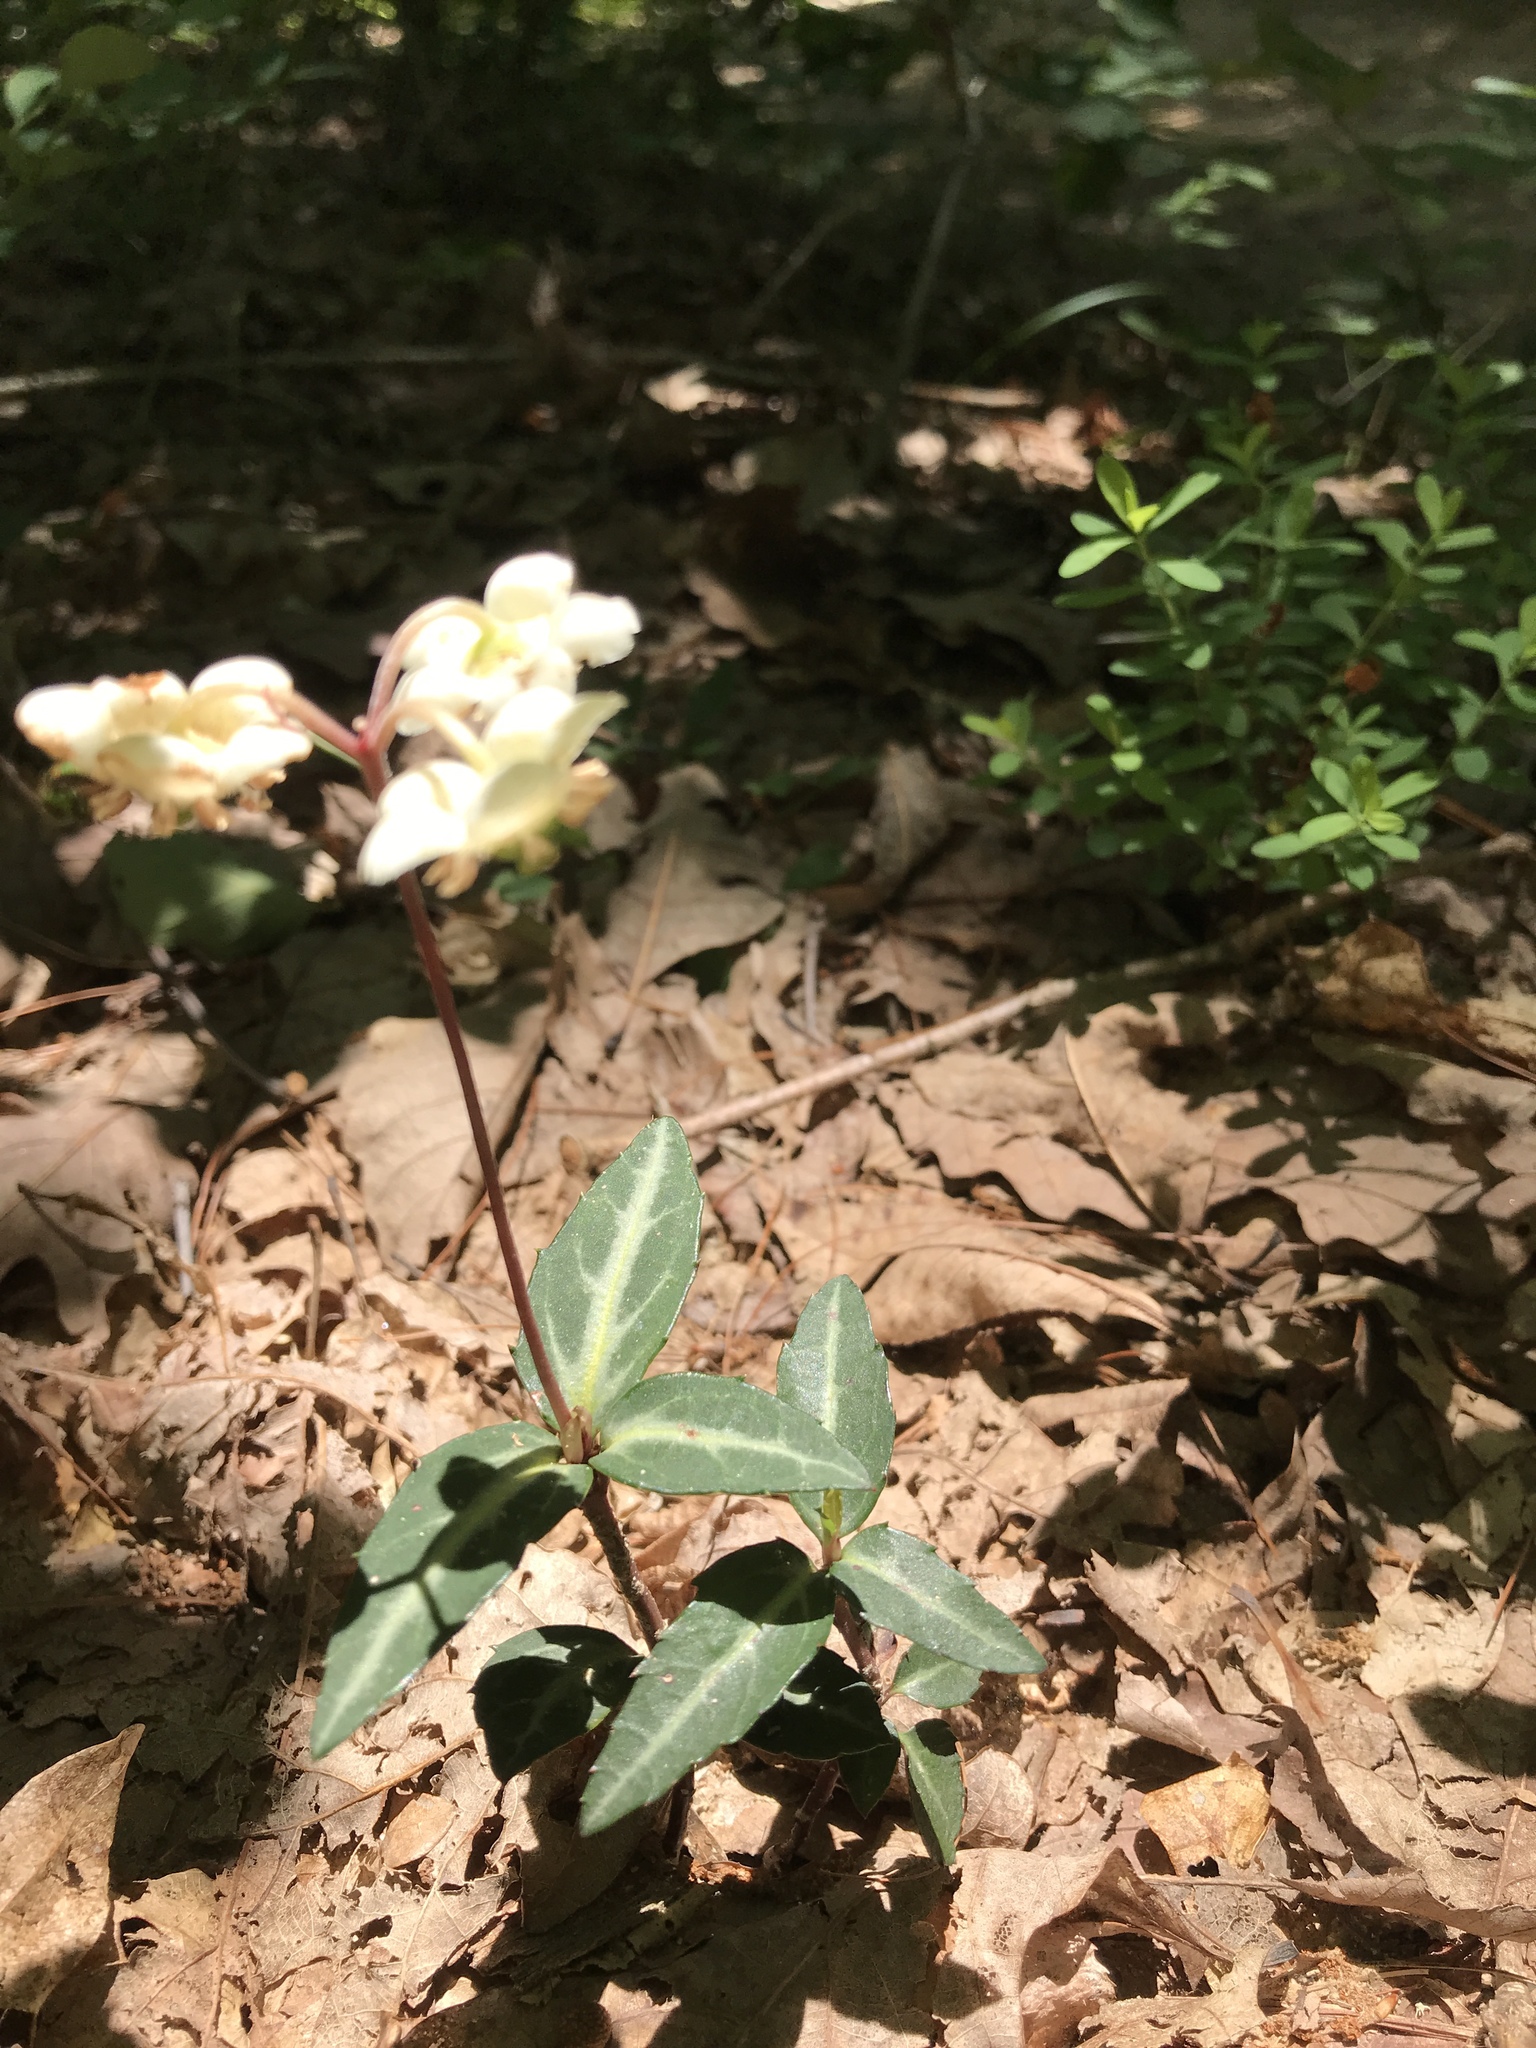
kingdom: Plantae
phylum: Tracheophyta
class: Magnoliopsida
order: Ericales
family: Ericaceae
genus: Chimaphila
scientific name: Chimaphila maculata
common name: Spotted pipsissewa
